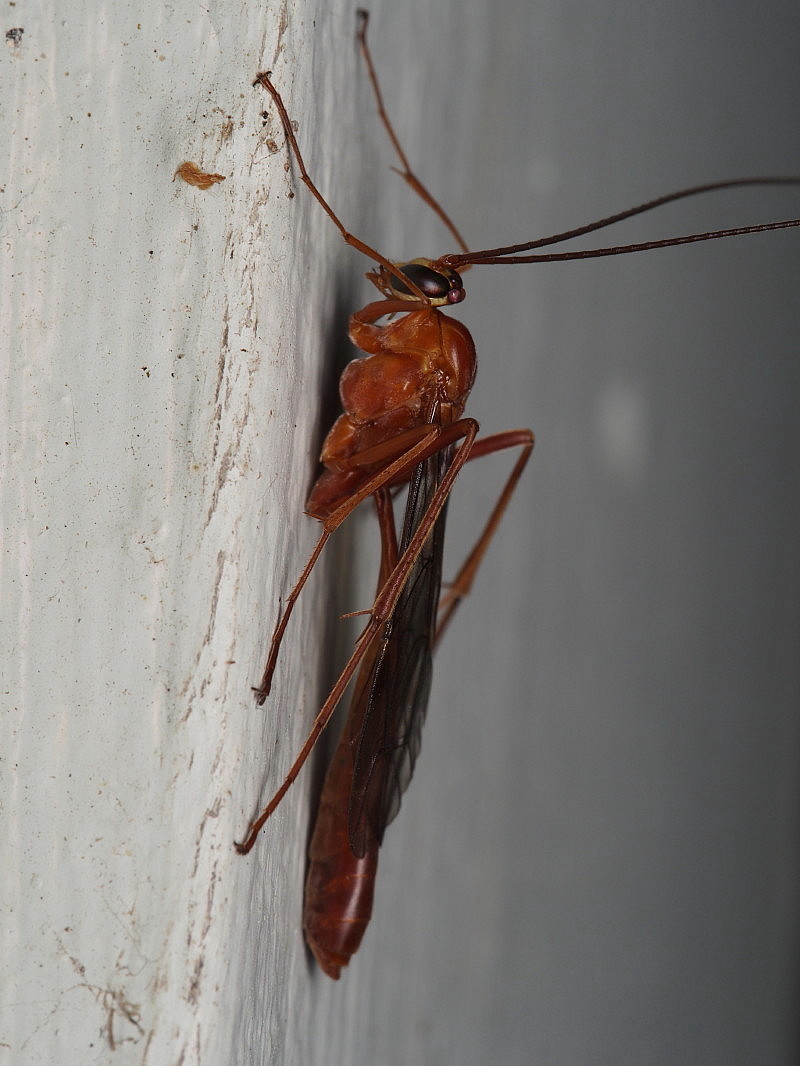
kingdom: Animalia
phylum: Arthropoda
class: Insecta
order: Hymenoptera
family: Ichneumonidae
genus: Netelia
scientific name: Netelia producta
